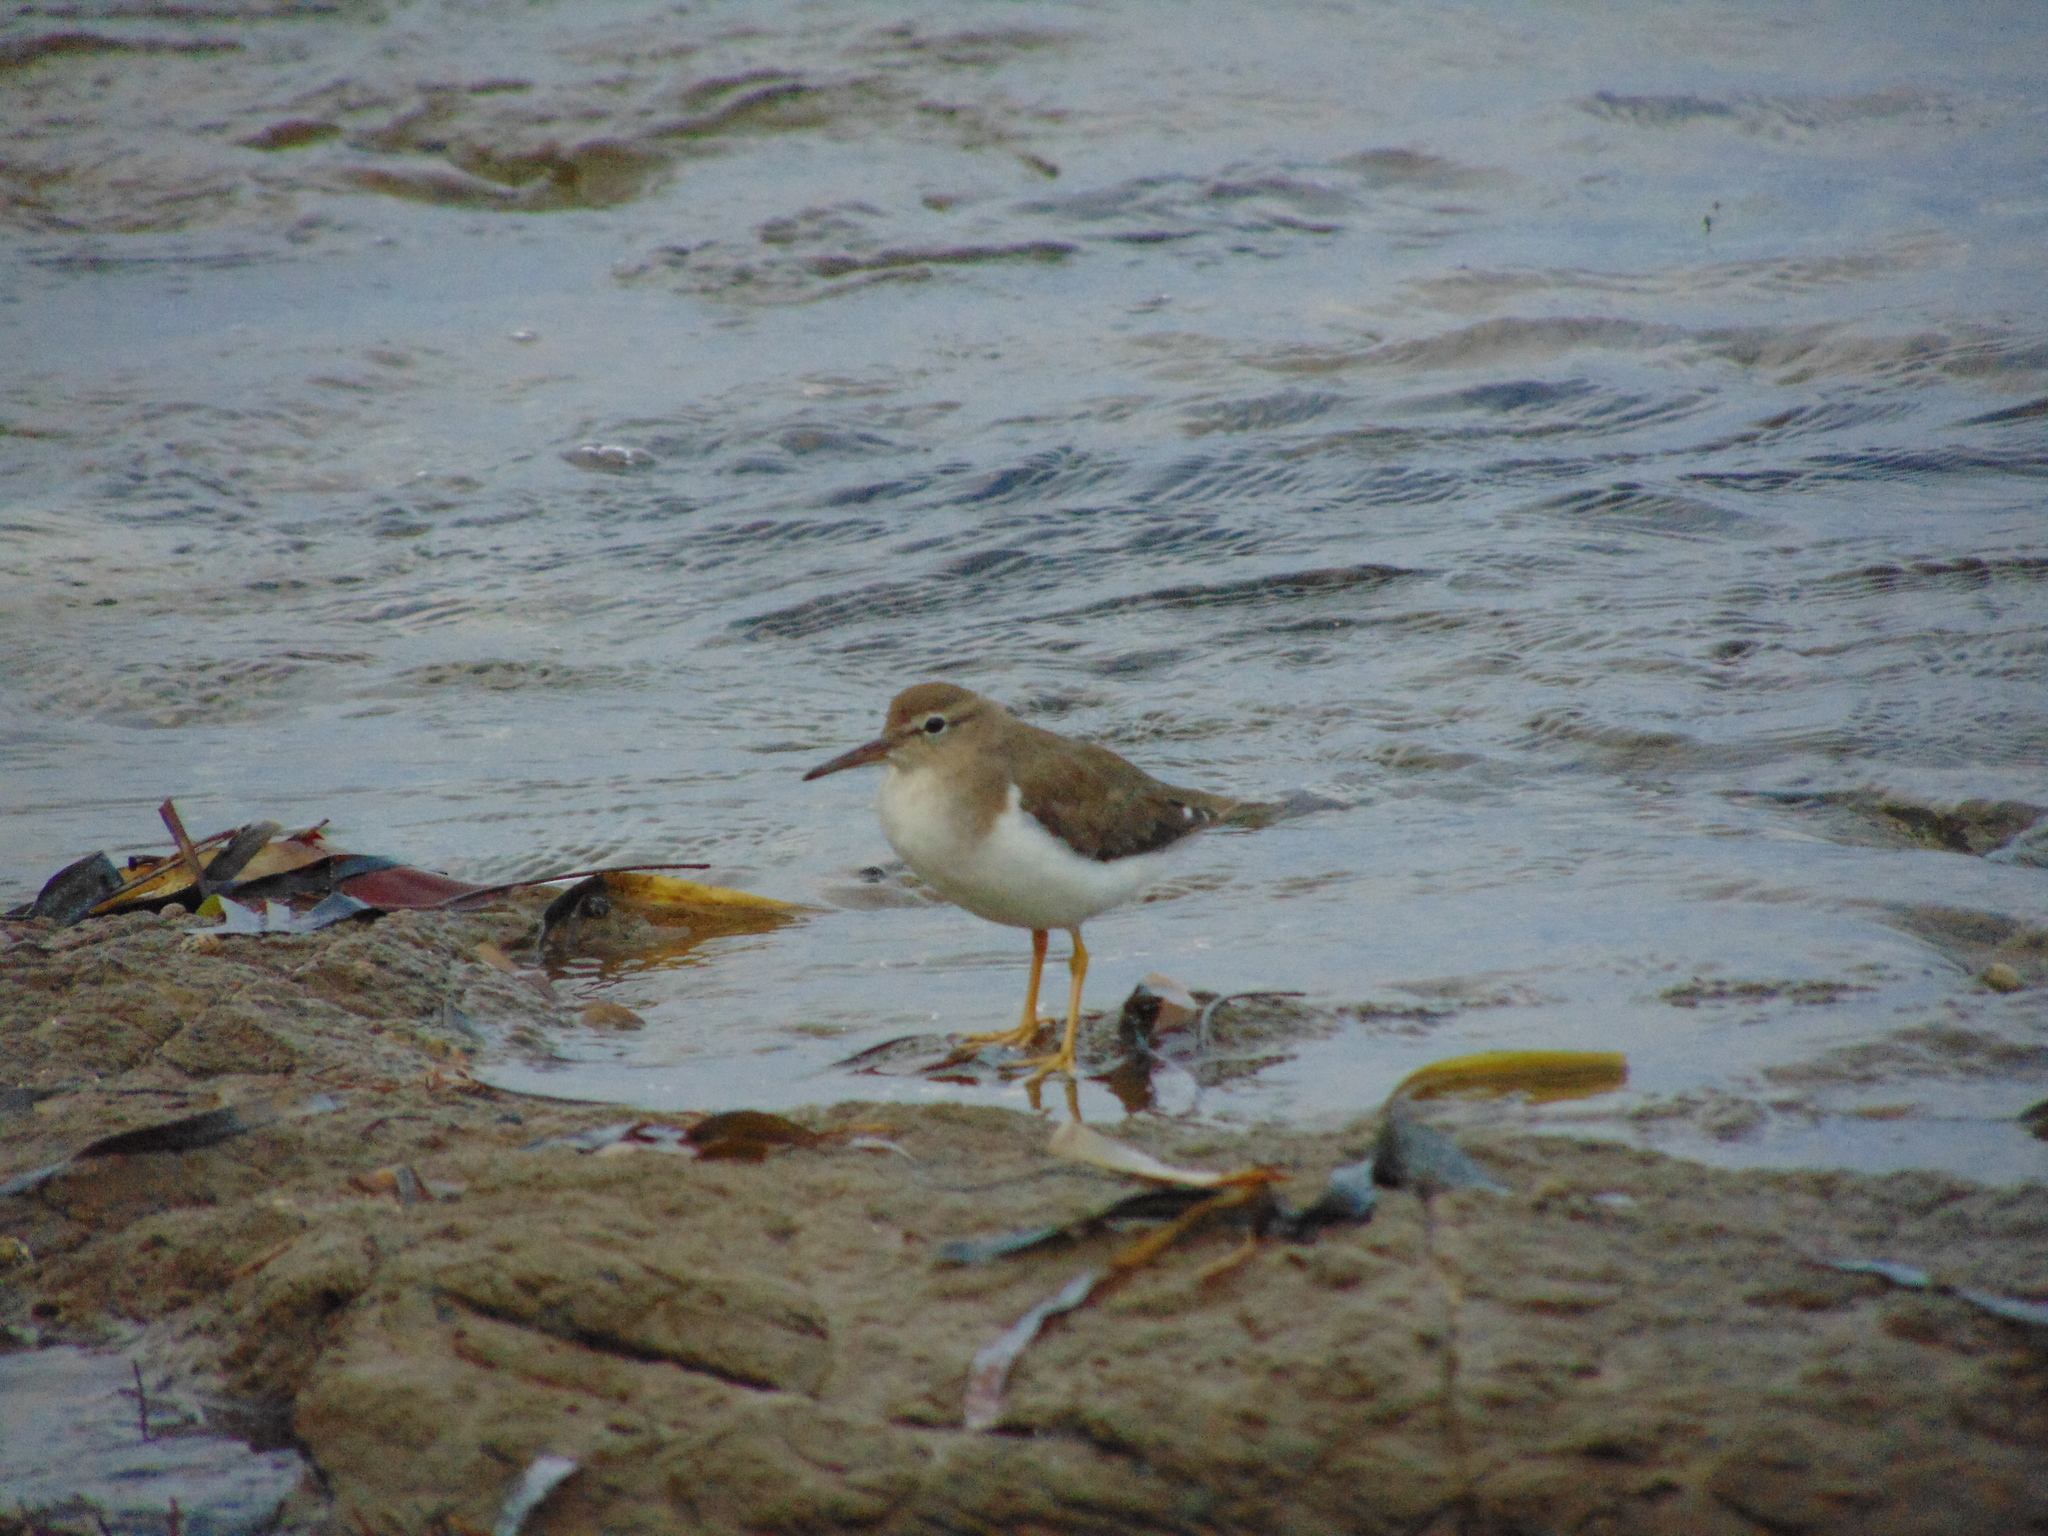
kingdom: Animalia
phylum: Chordata
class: Aves
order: Charadriiformes
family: Scolopacidae
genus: Actitis
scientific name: Actitis macularius
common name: Spotted sandpiper
